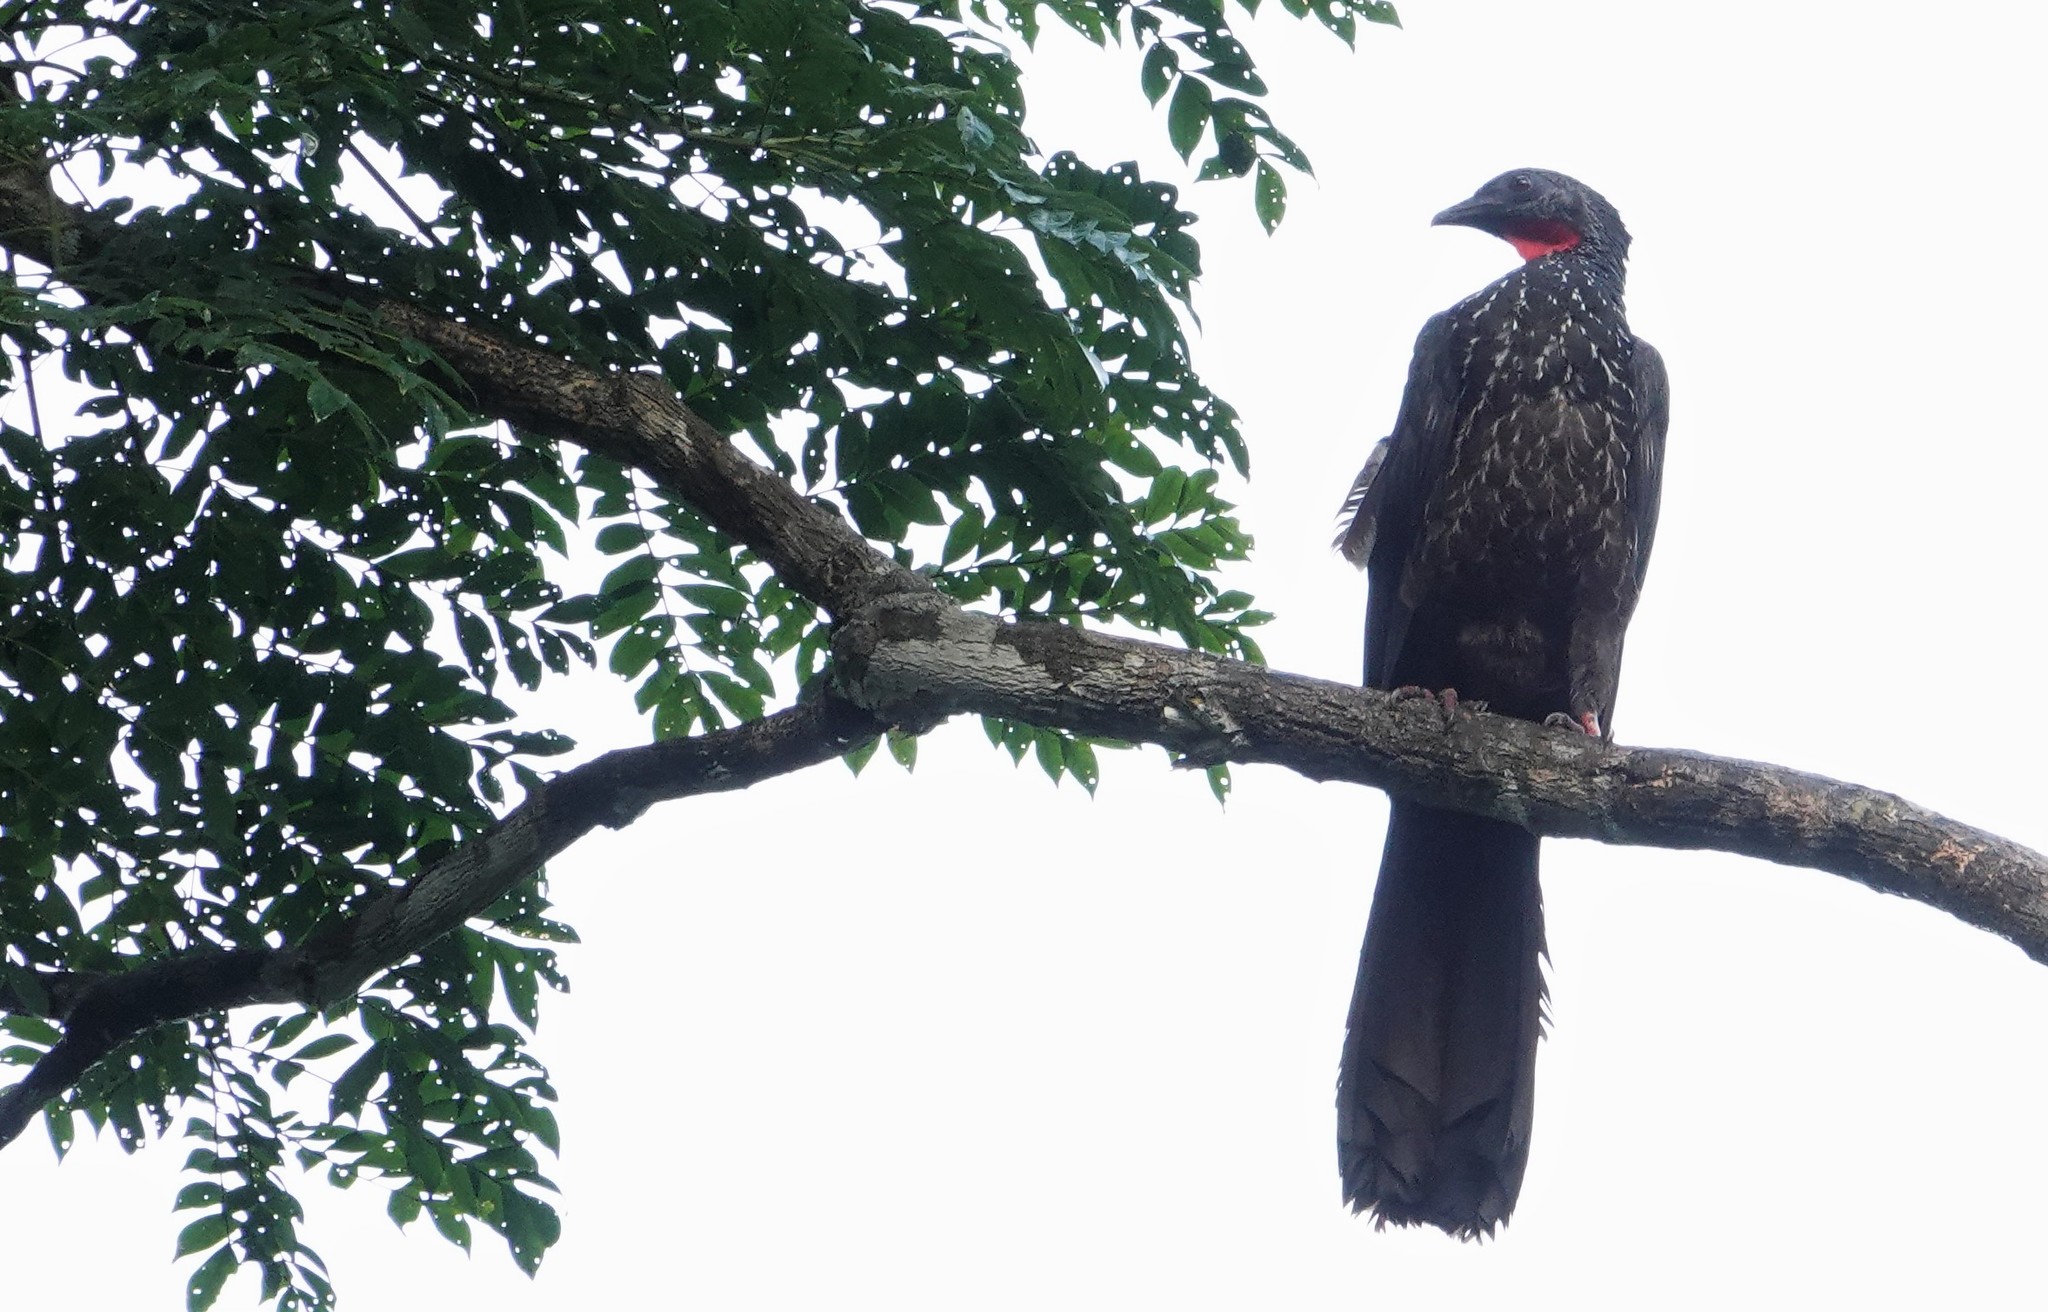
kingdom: Animalia
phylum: Chordata
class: Aves
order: Galliformes
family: Cracidae
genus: Penelope
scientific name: Penelope marail
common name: Marail guan
